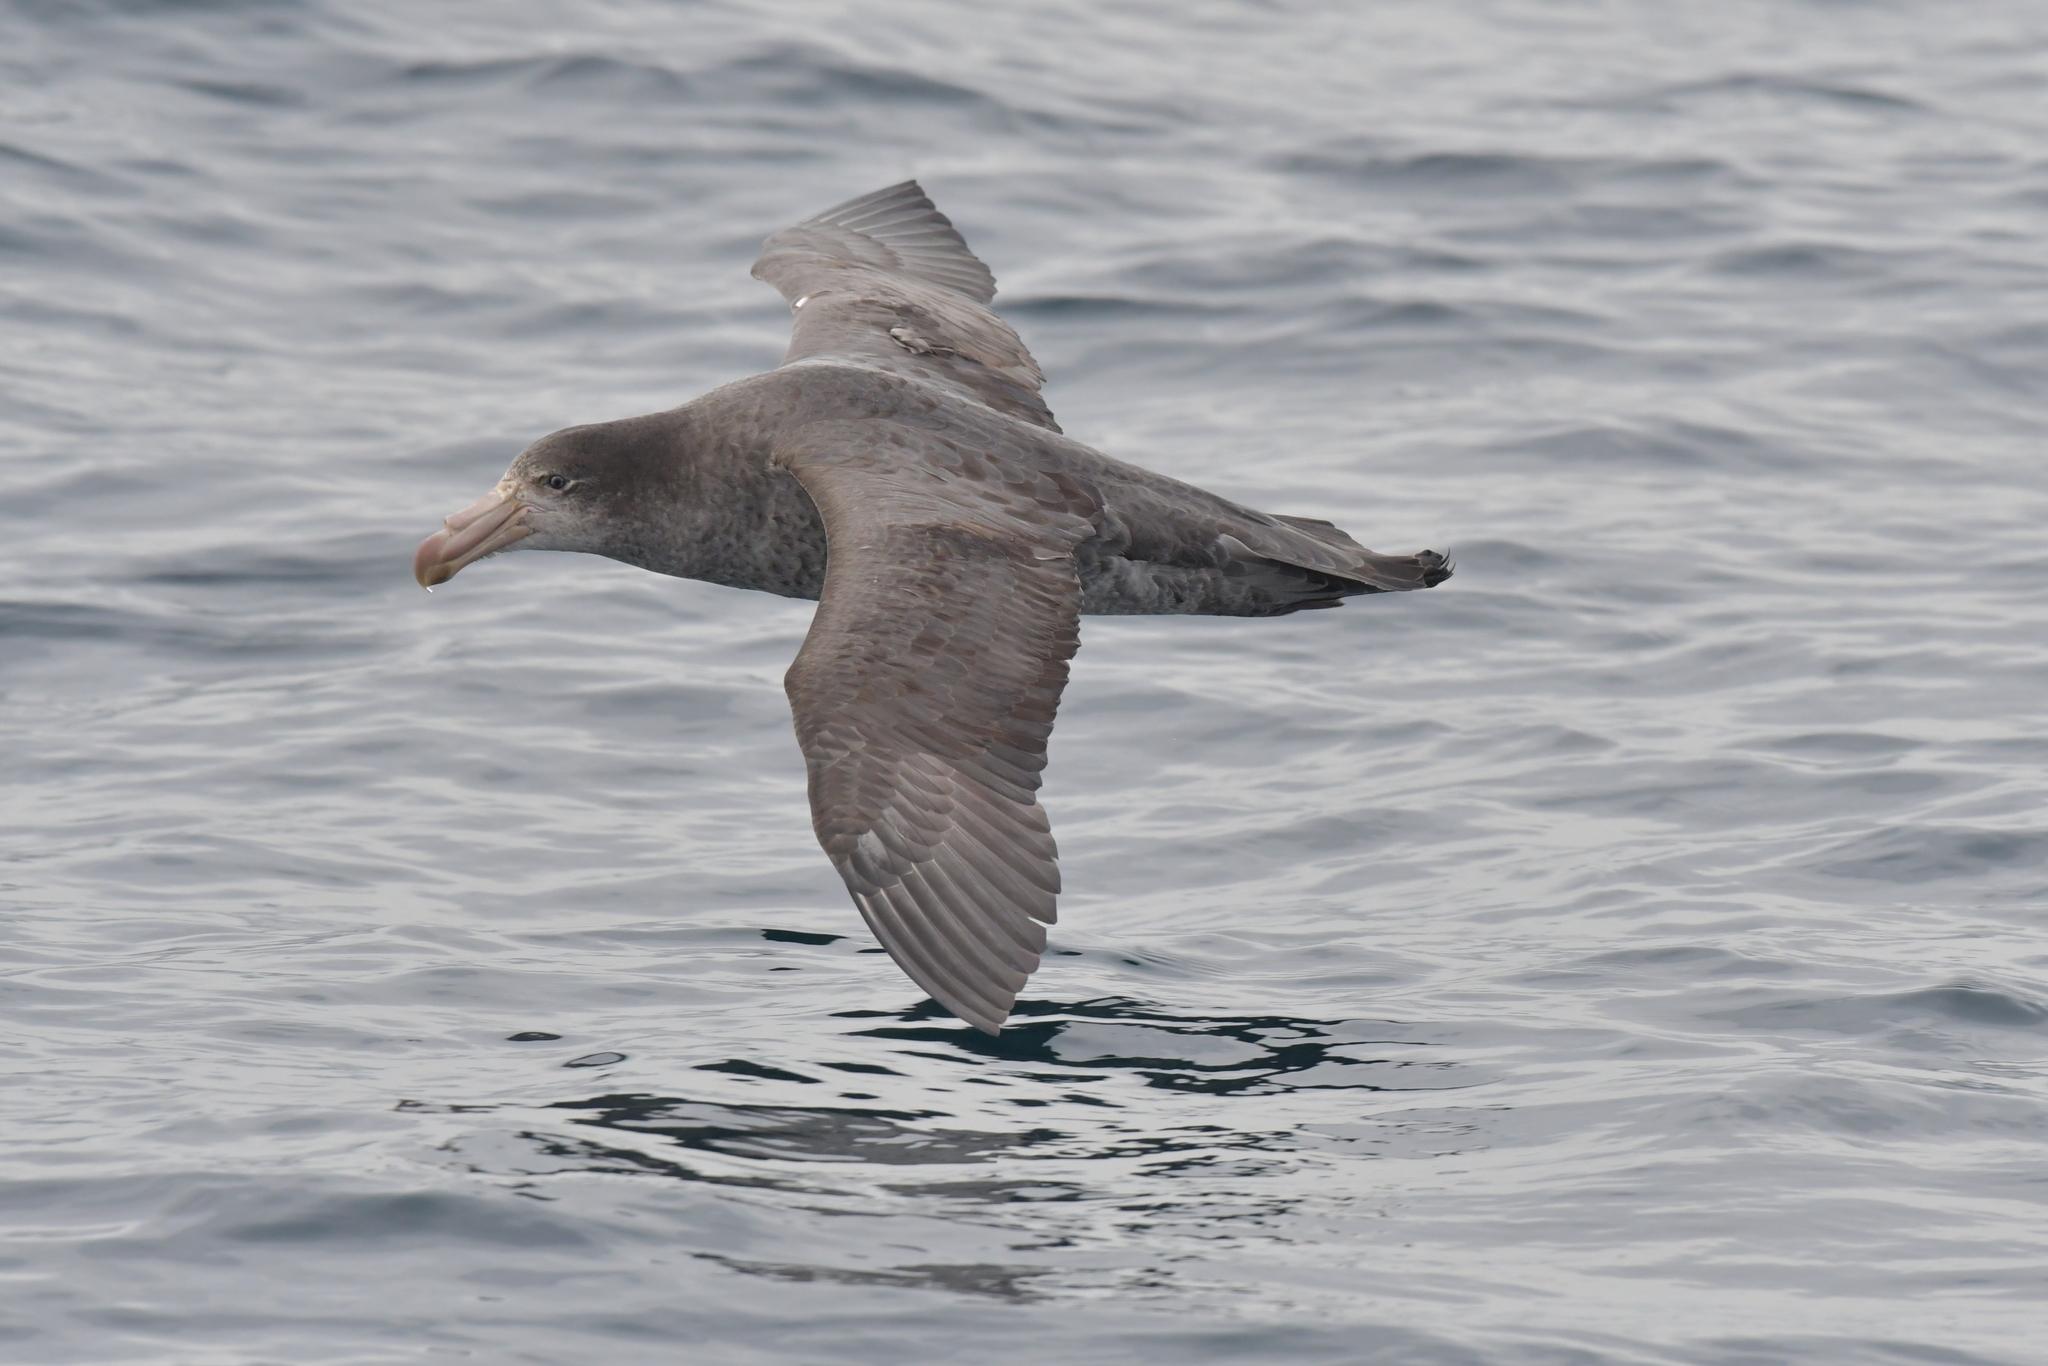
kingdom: Animalia
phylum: Chordata
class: Aves
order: Procellariiformes
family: Procellariidae
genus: Macronectes
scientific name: Macronectes halli
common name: Northern giant petrel
